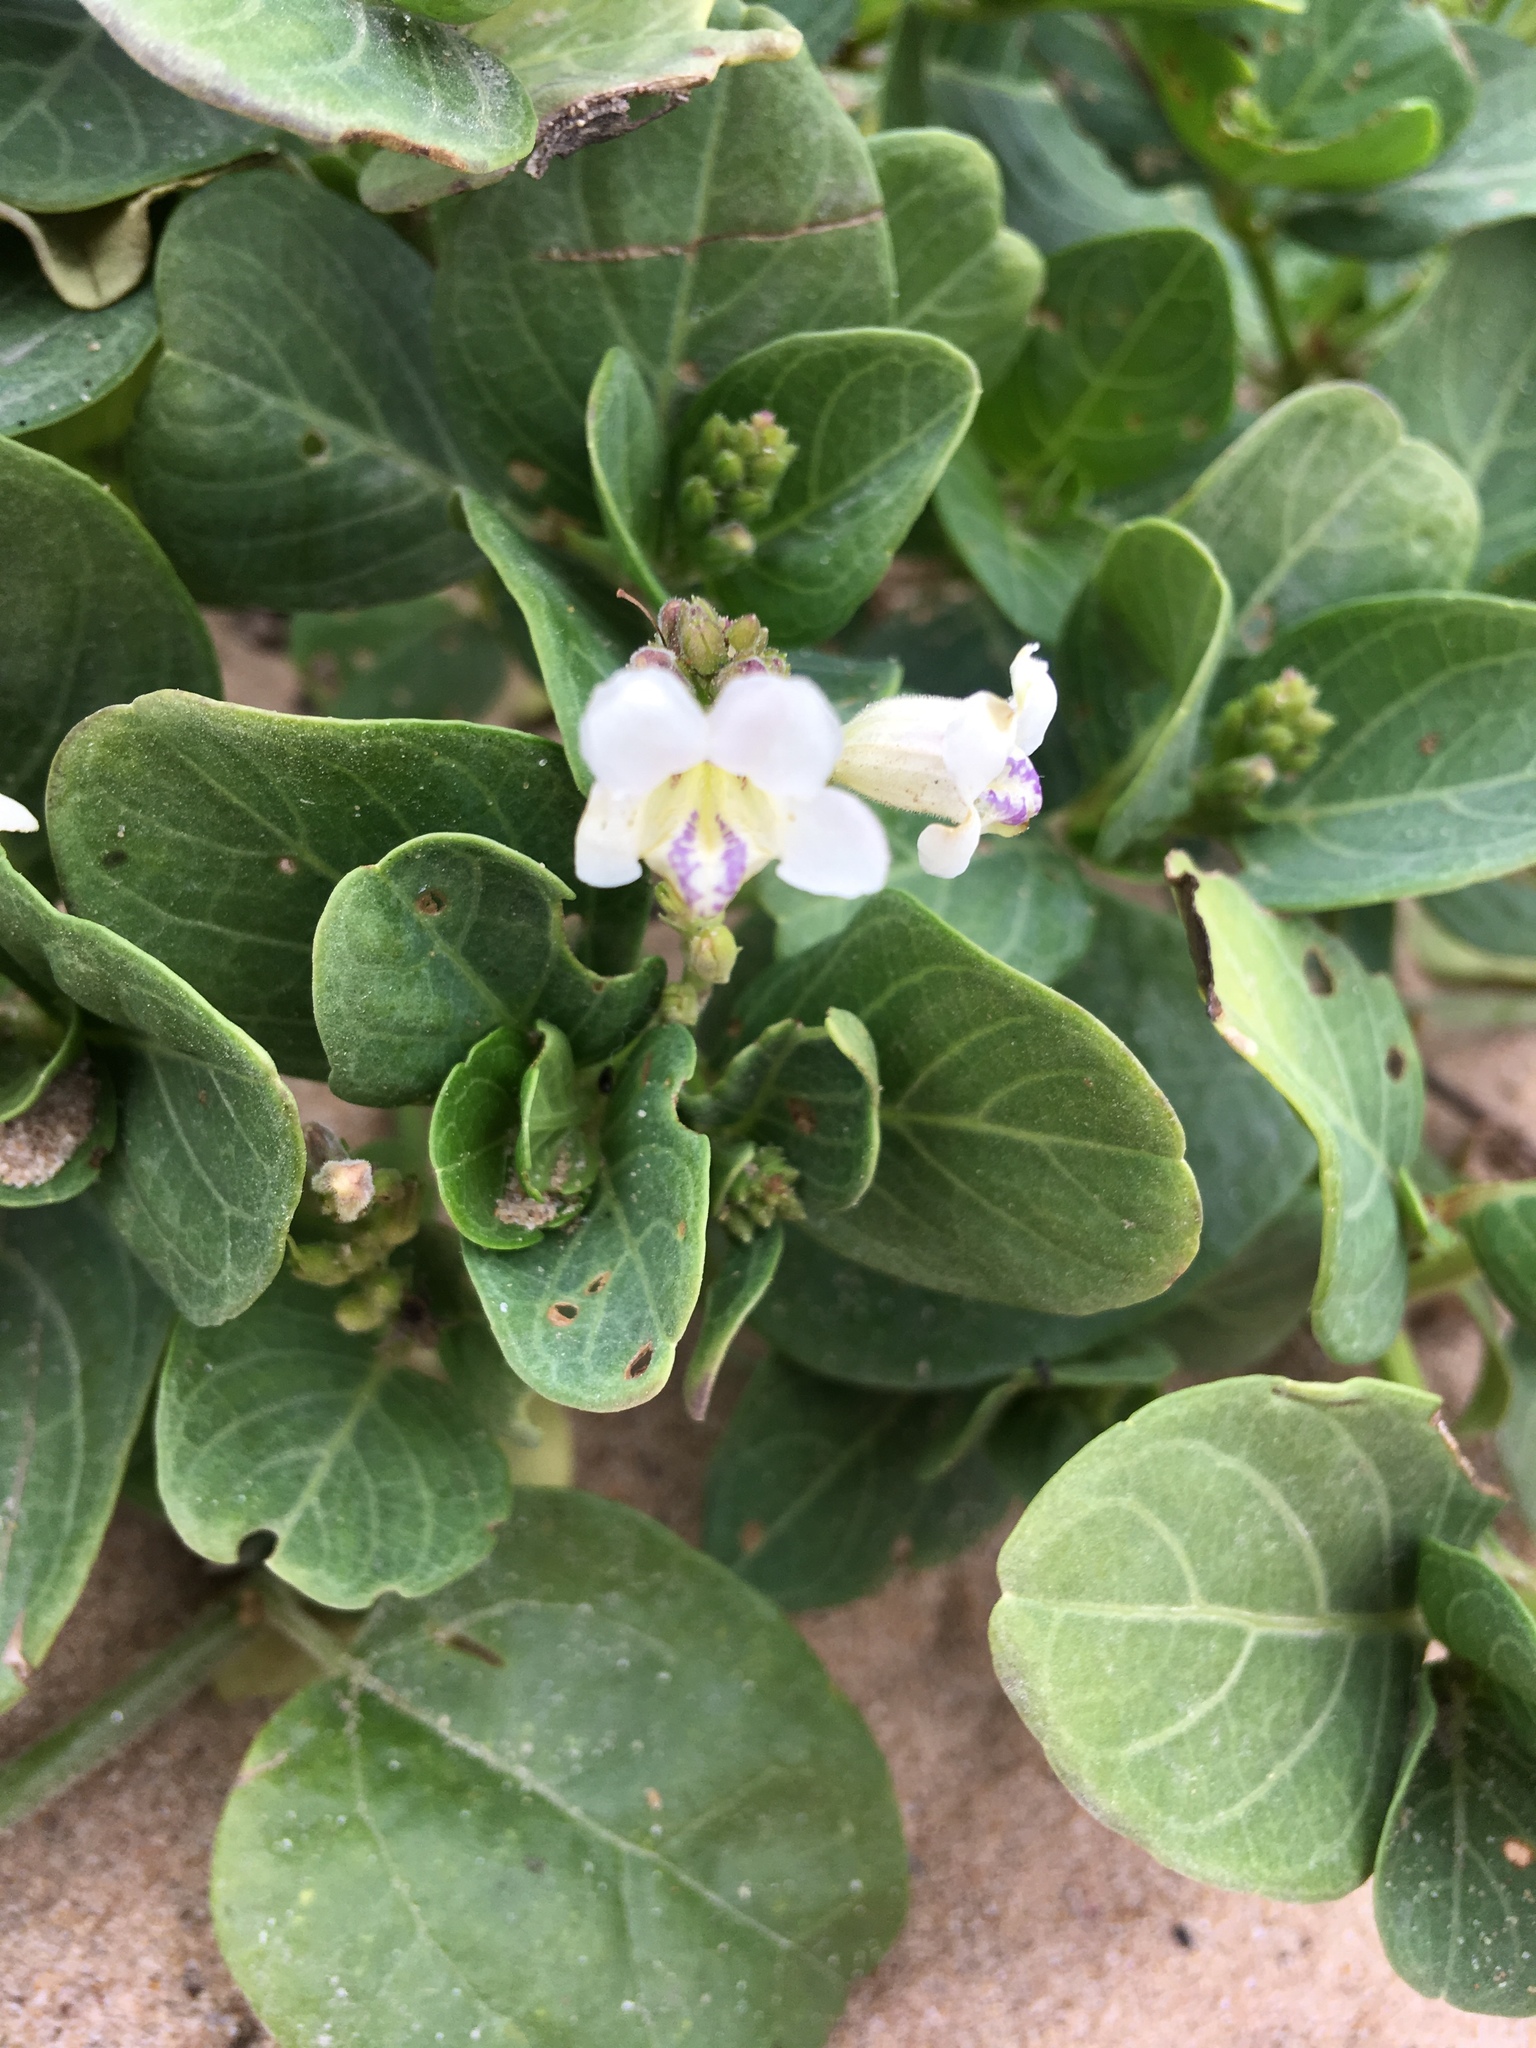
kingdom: Plantae
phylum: Tracheophyta
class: Magnoliopsida
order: Lamiales
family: Acanthaceae
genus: Asystasia
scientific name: Asystasia intrusa
